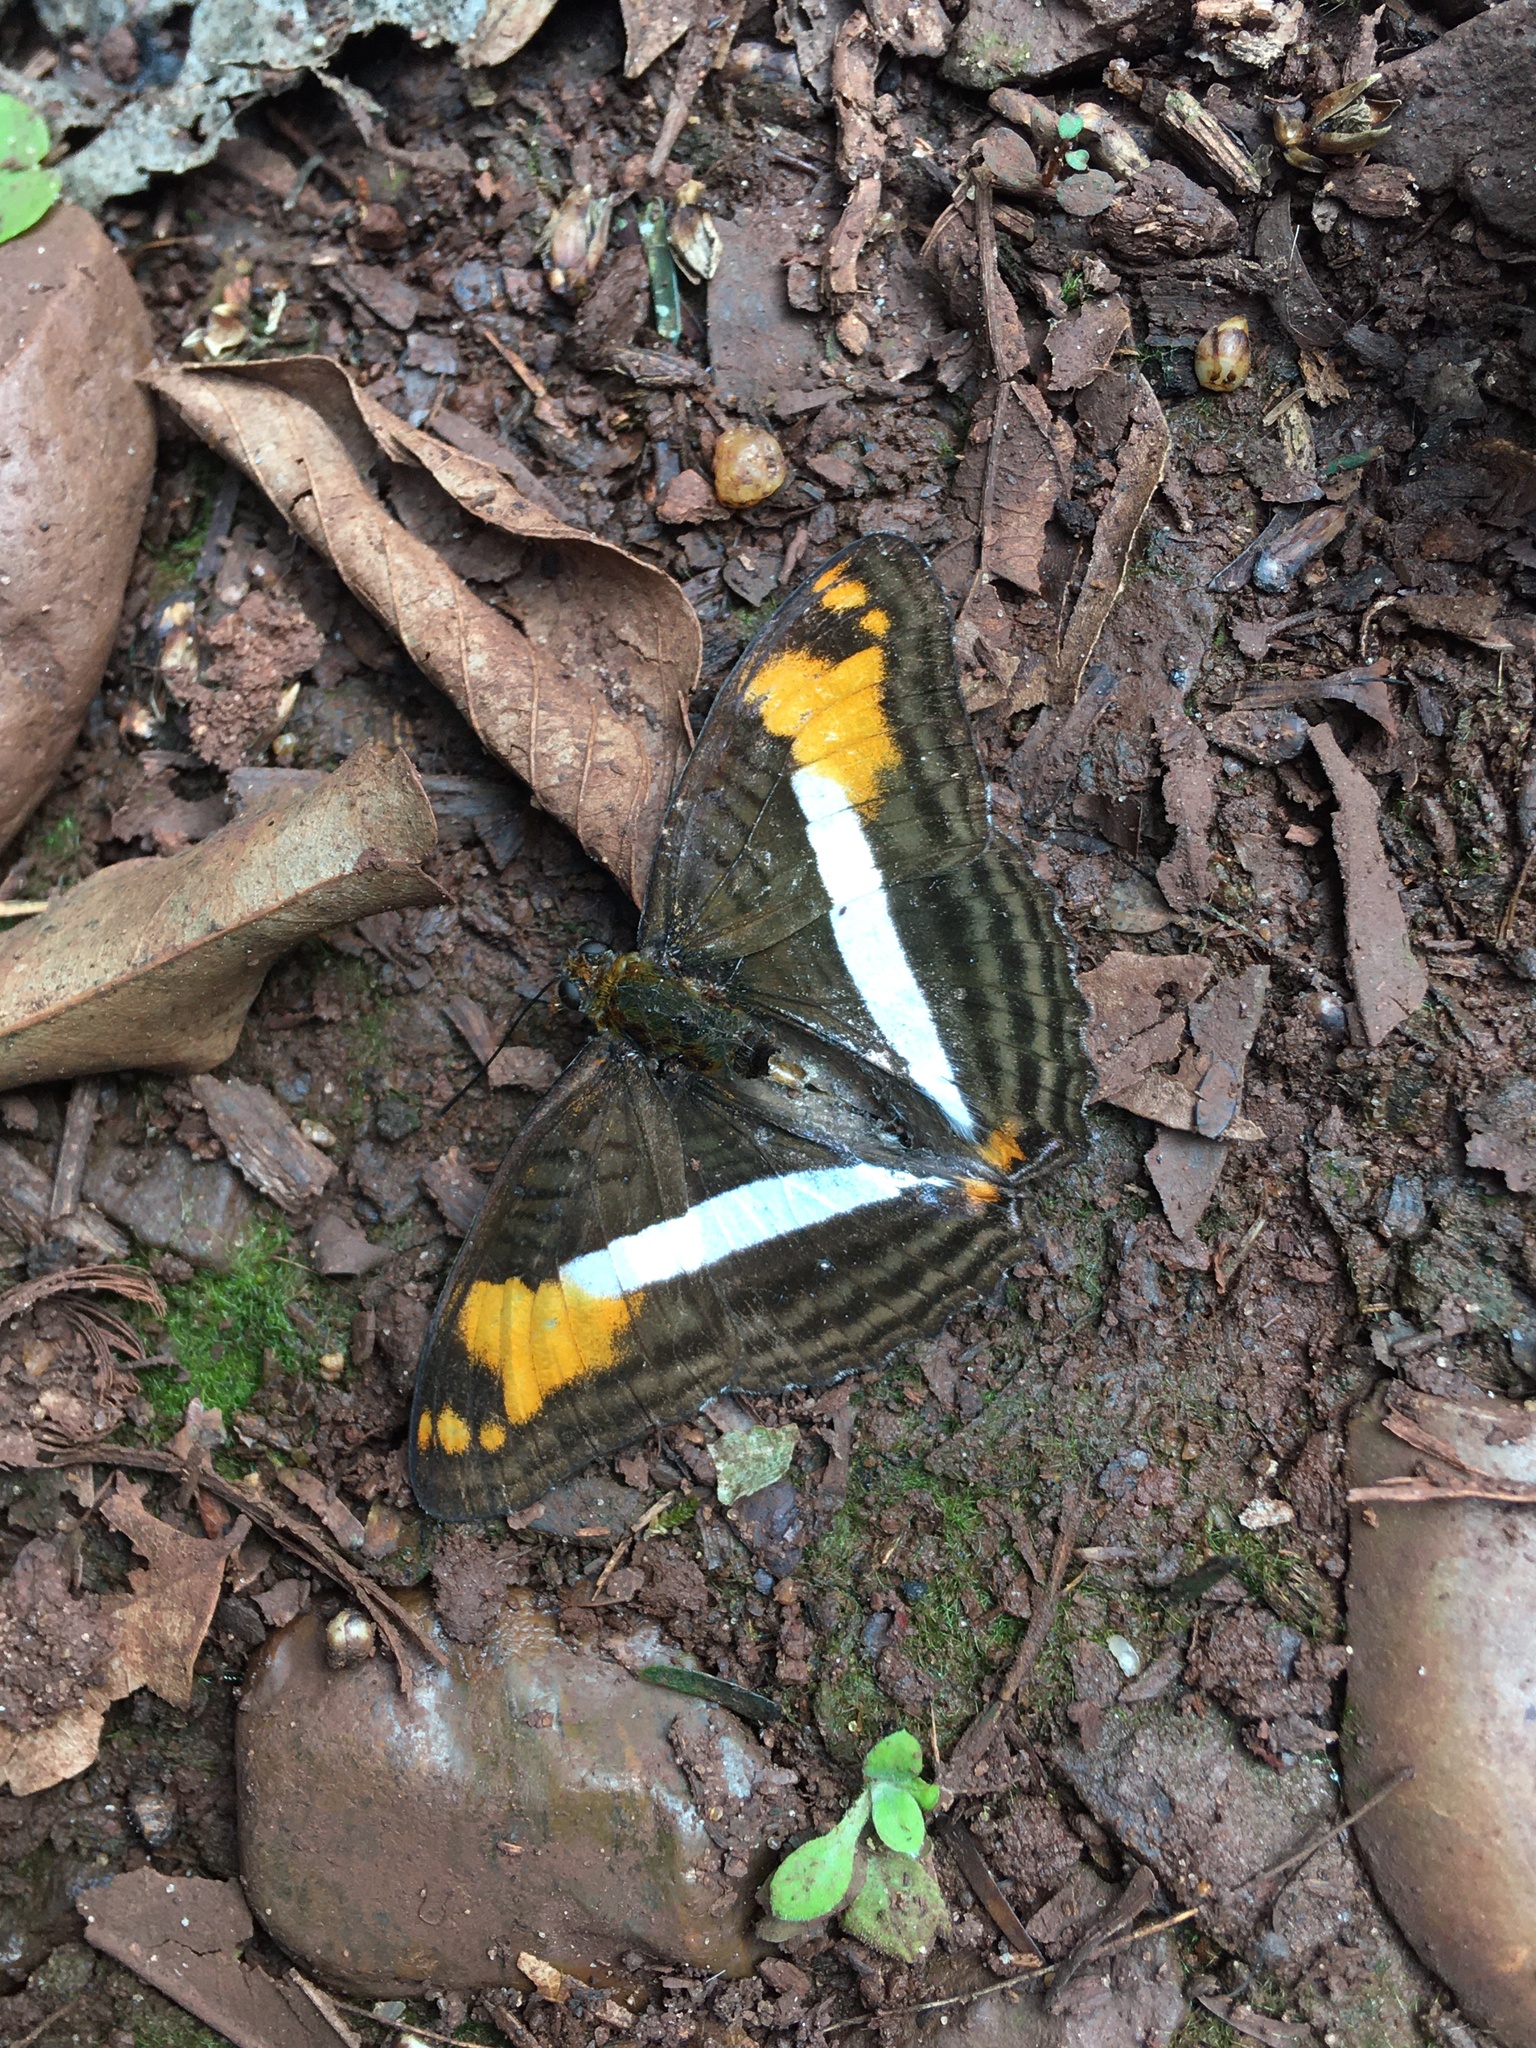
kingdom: Animalia
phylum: Arthropoda
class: Insecta
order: Lepidoptera
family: Nymphalidae
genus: Limenitis
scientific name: Limenitis malea
